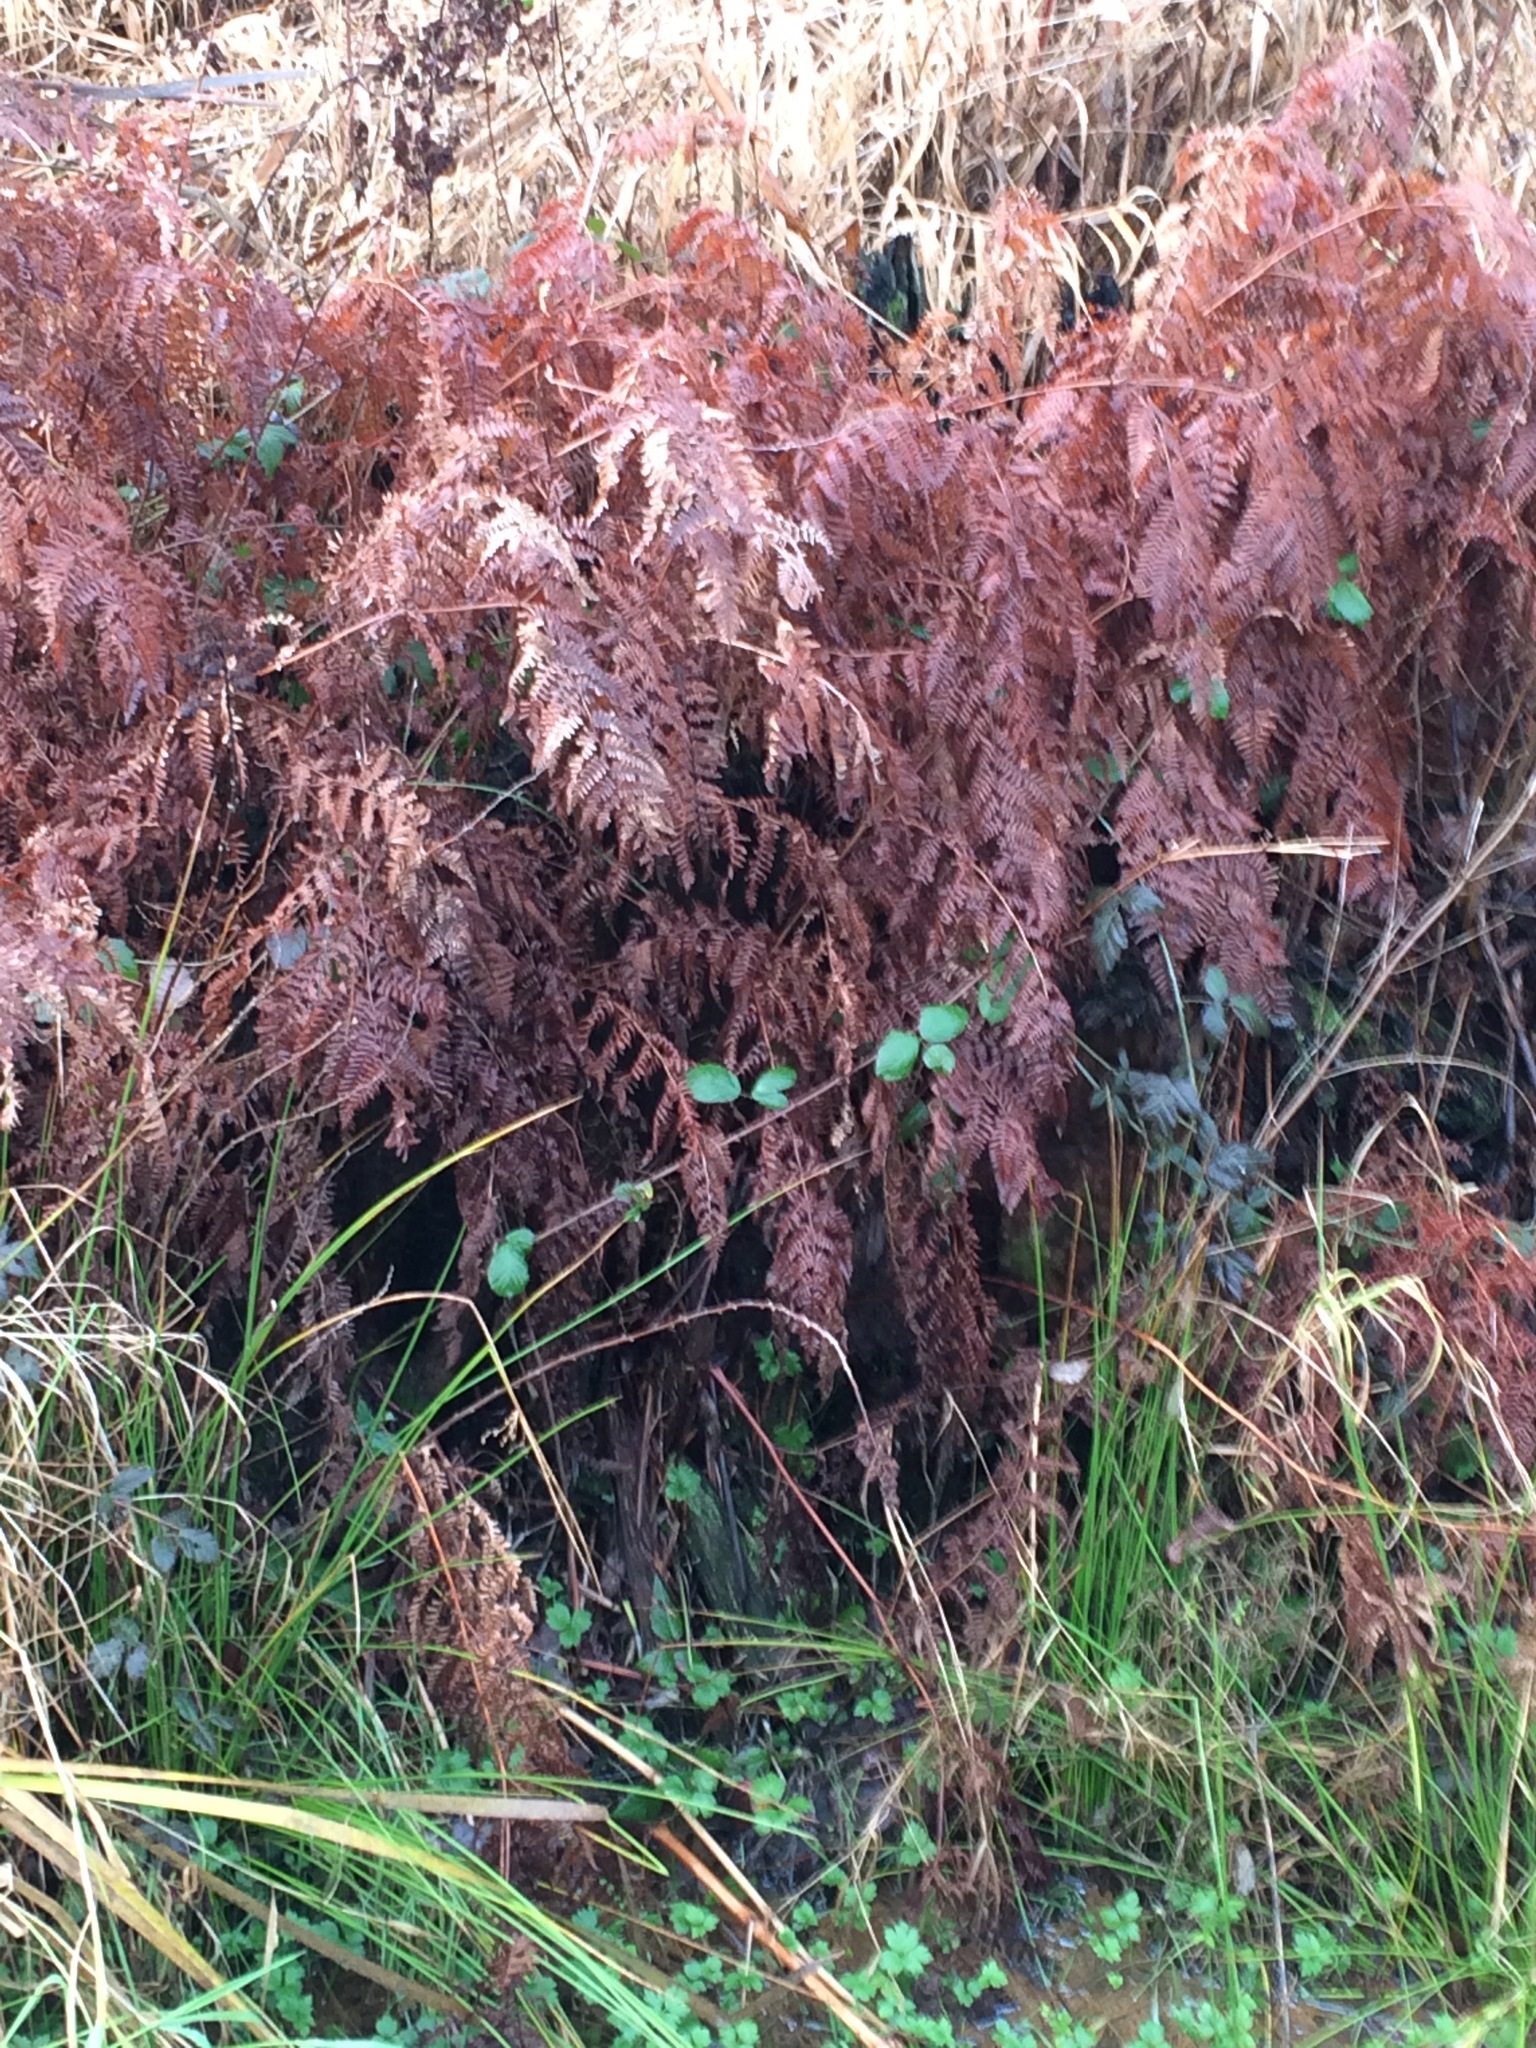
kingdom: Plantae
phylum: Tracheophyta
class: Polypodiopsida
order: Polypodiales
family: Dennstaedtiaceae
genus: Pteridium
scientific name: Pteridium aquilinum
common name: Bracken
